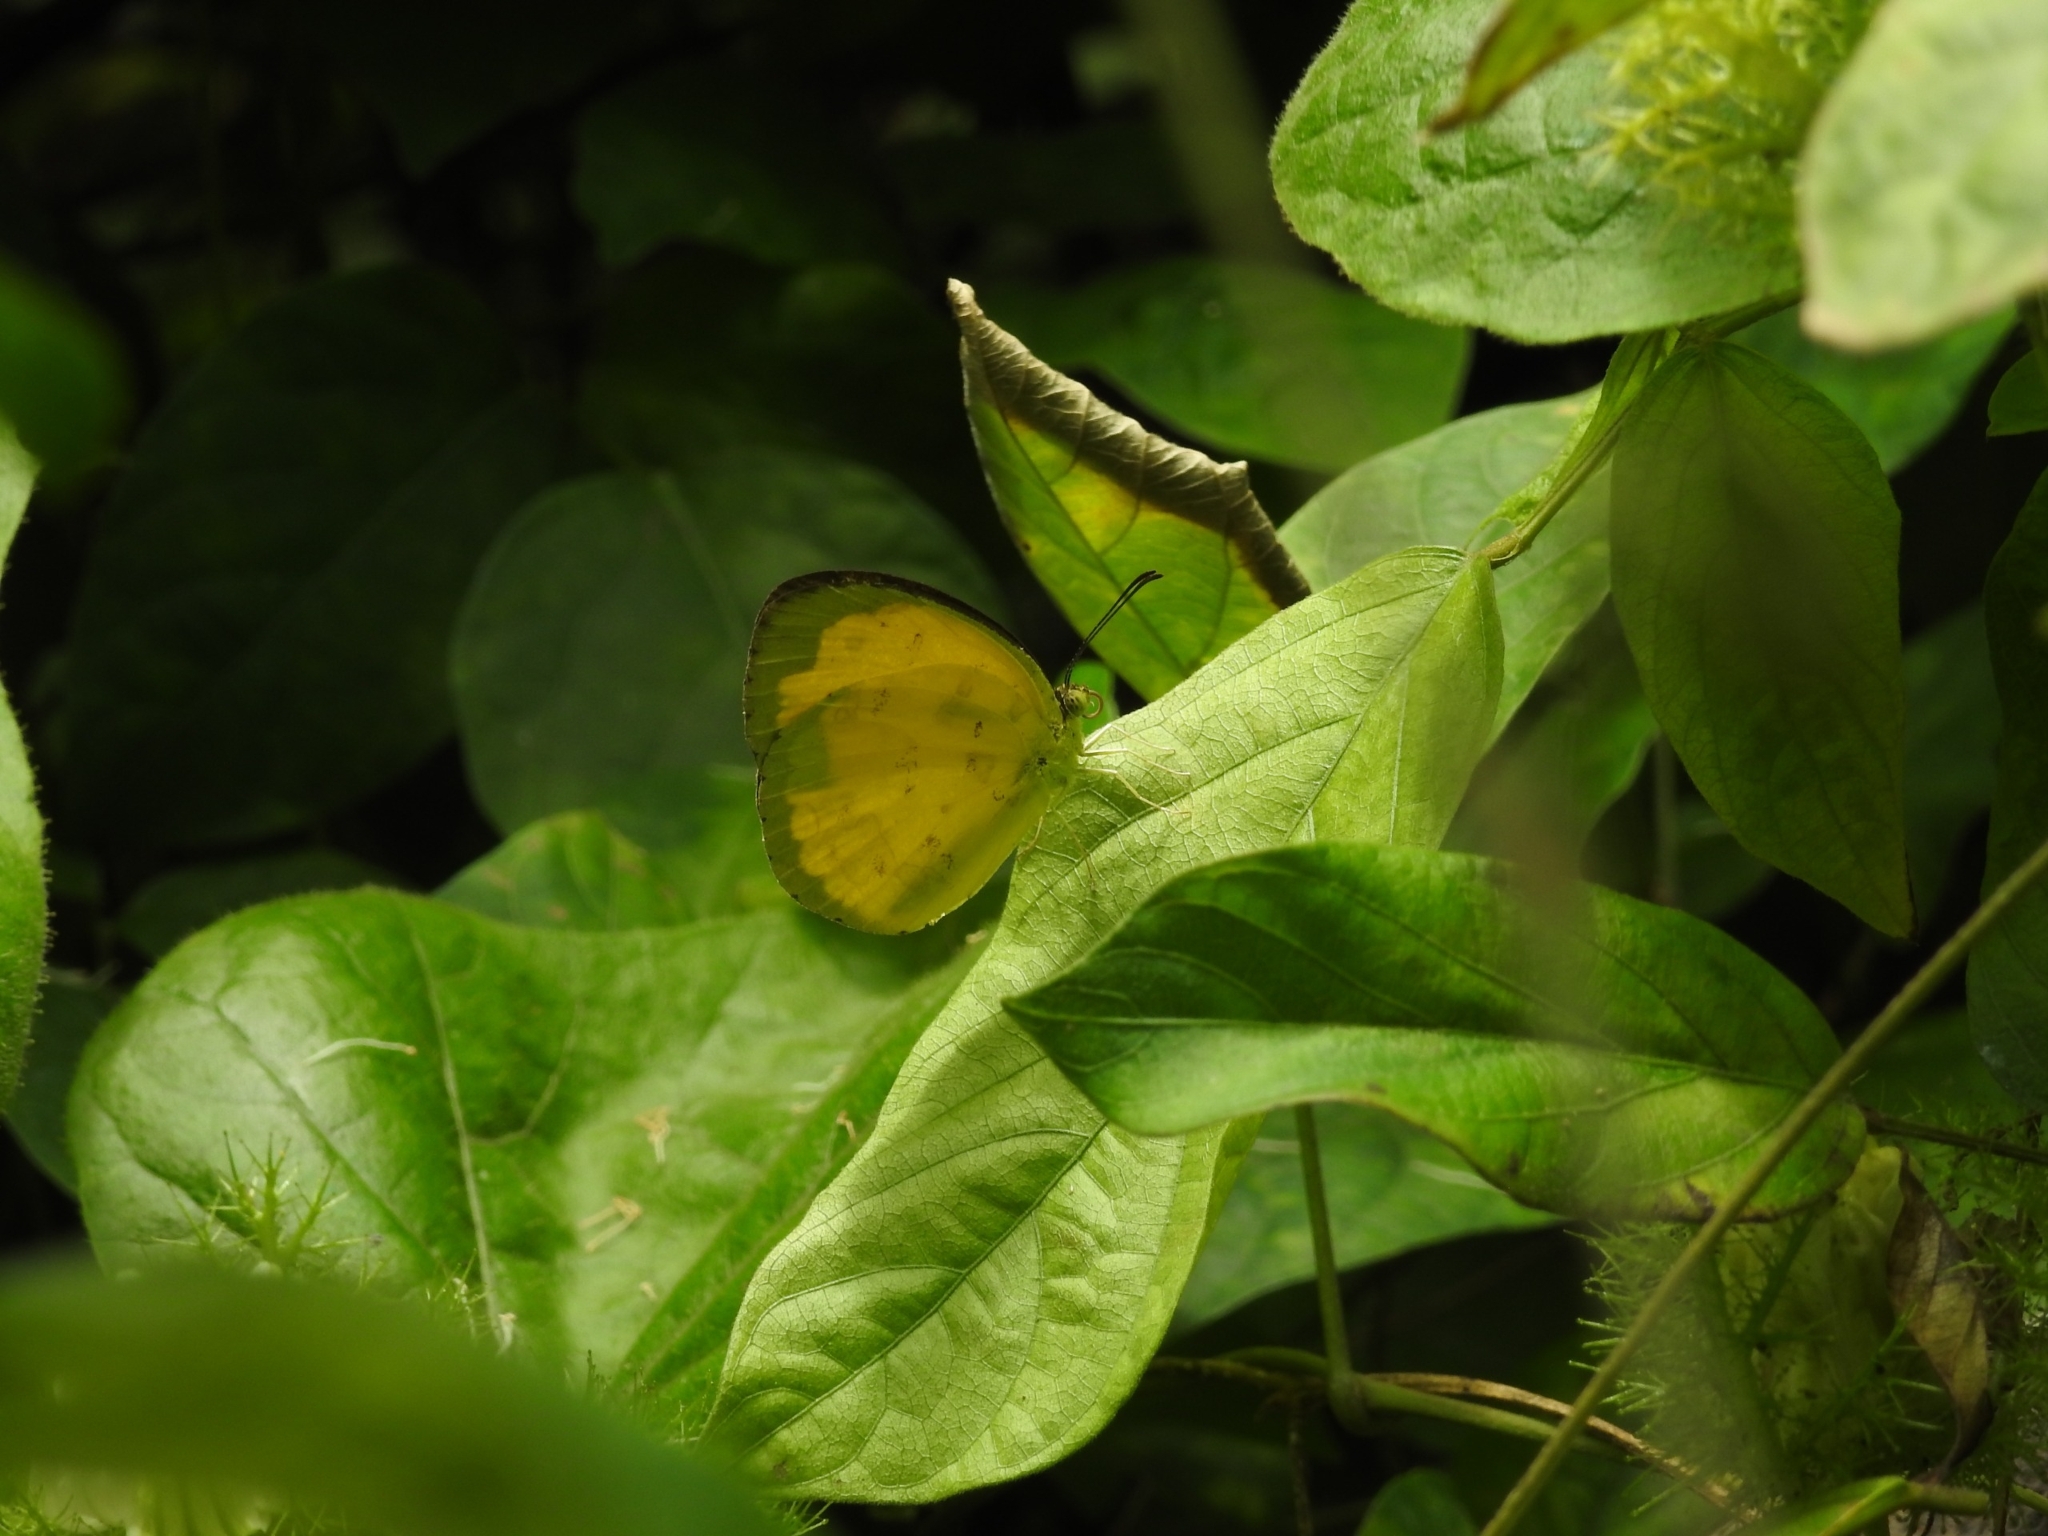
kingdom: Animalia
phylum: Arthropoda
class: Insecta
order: Lepidoptera
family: Pieridae
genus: Eurema
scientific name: Eurema hecabe
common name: Pale grass yellow
